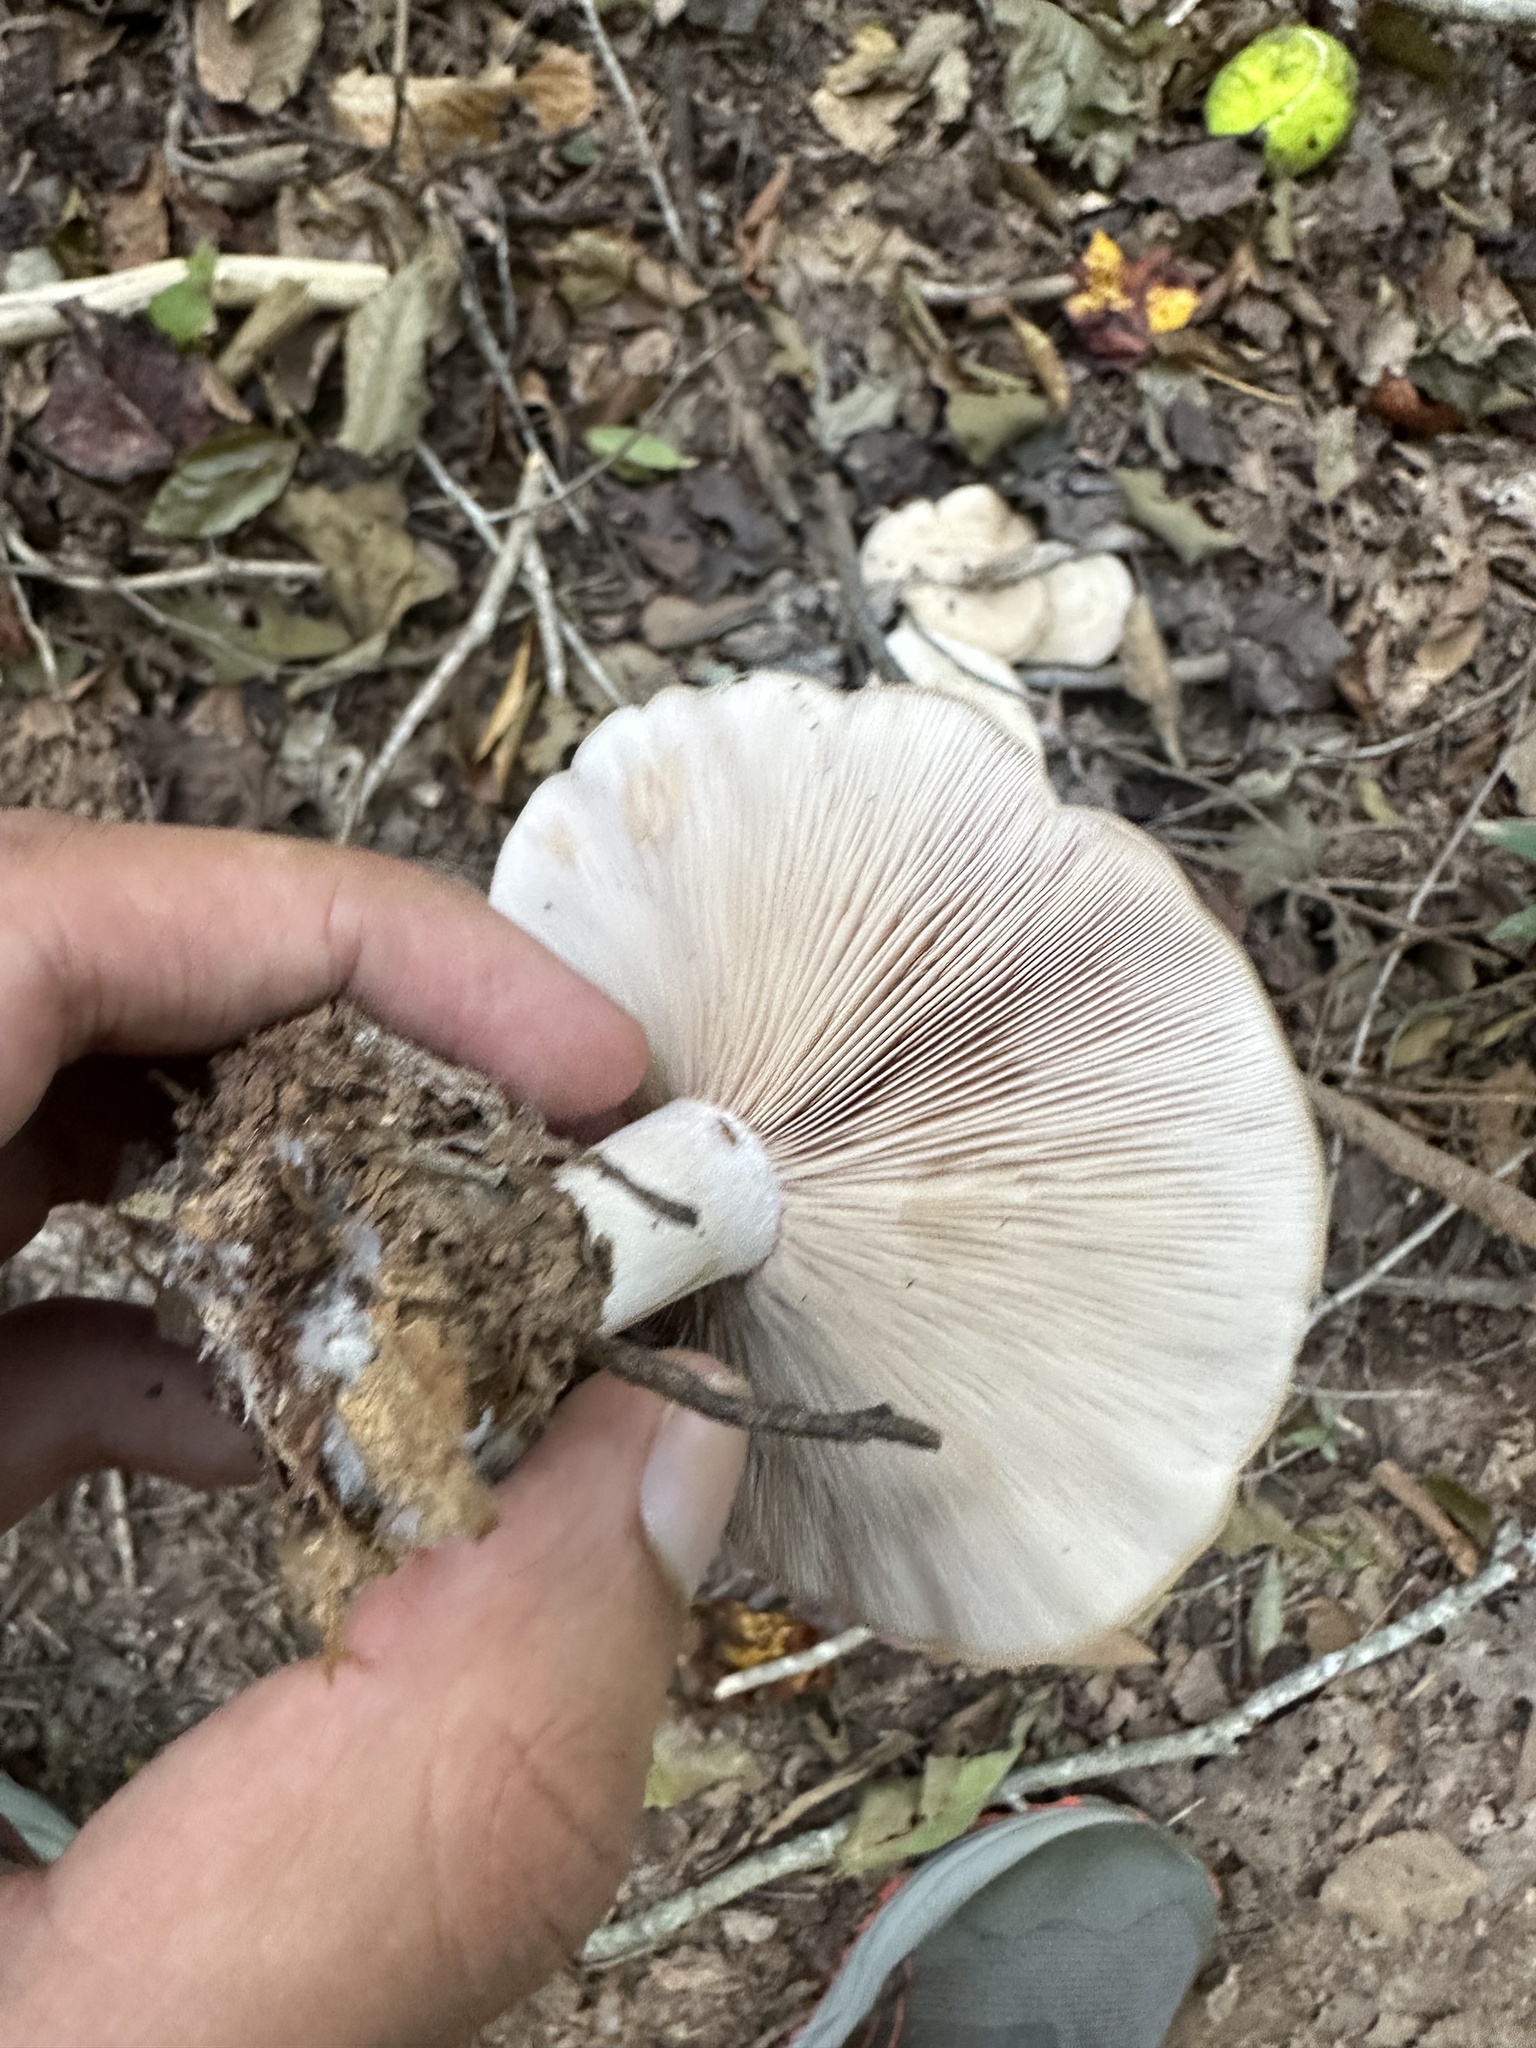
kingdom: Fungi
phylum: Basidiomycota
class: Agaricomycetes
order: Agaricales
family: Tricholomataceae
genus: Collybia
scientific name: Collybia
